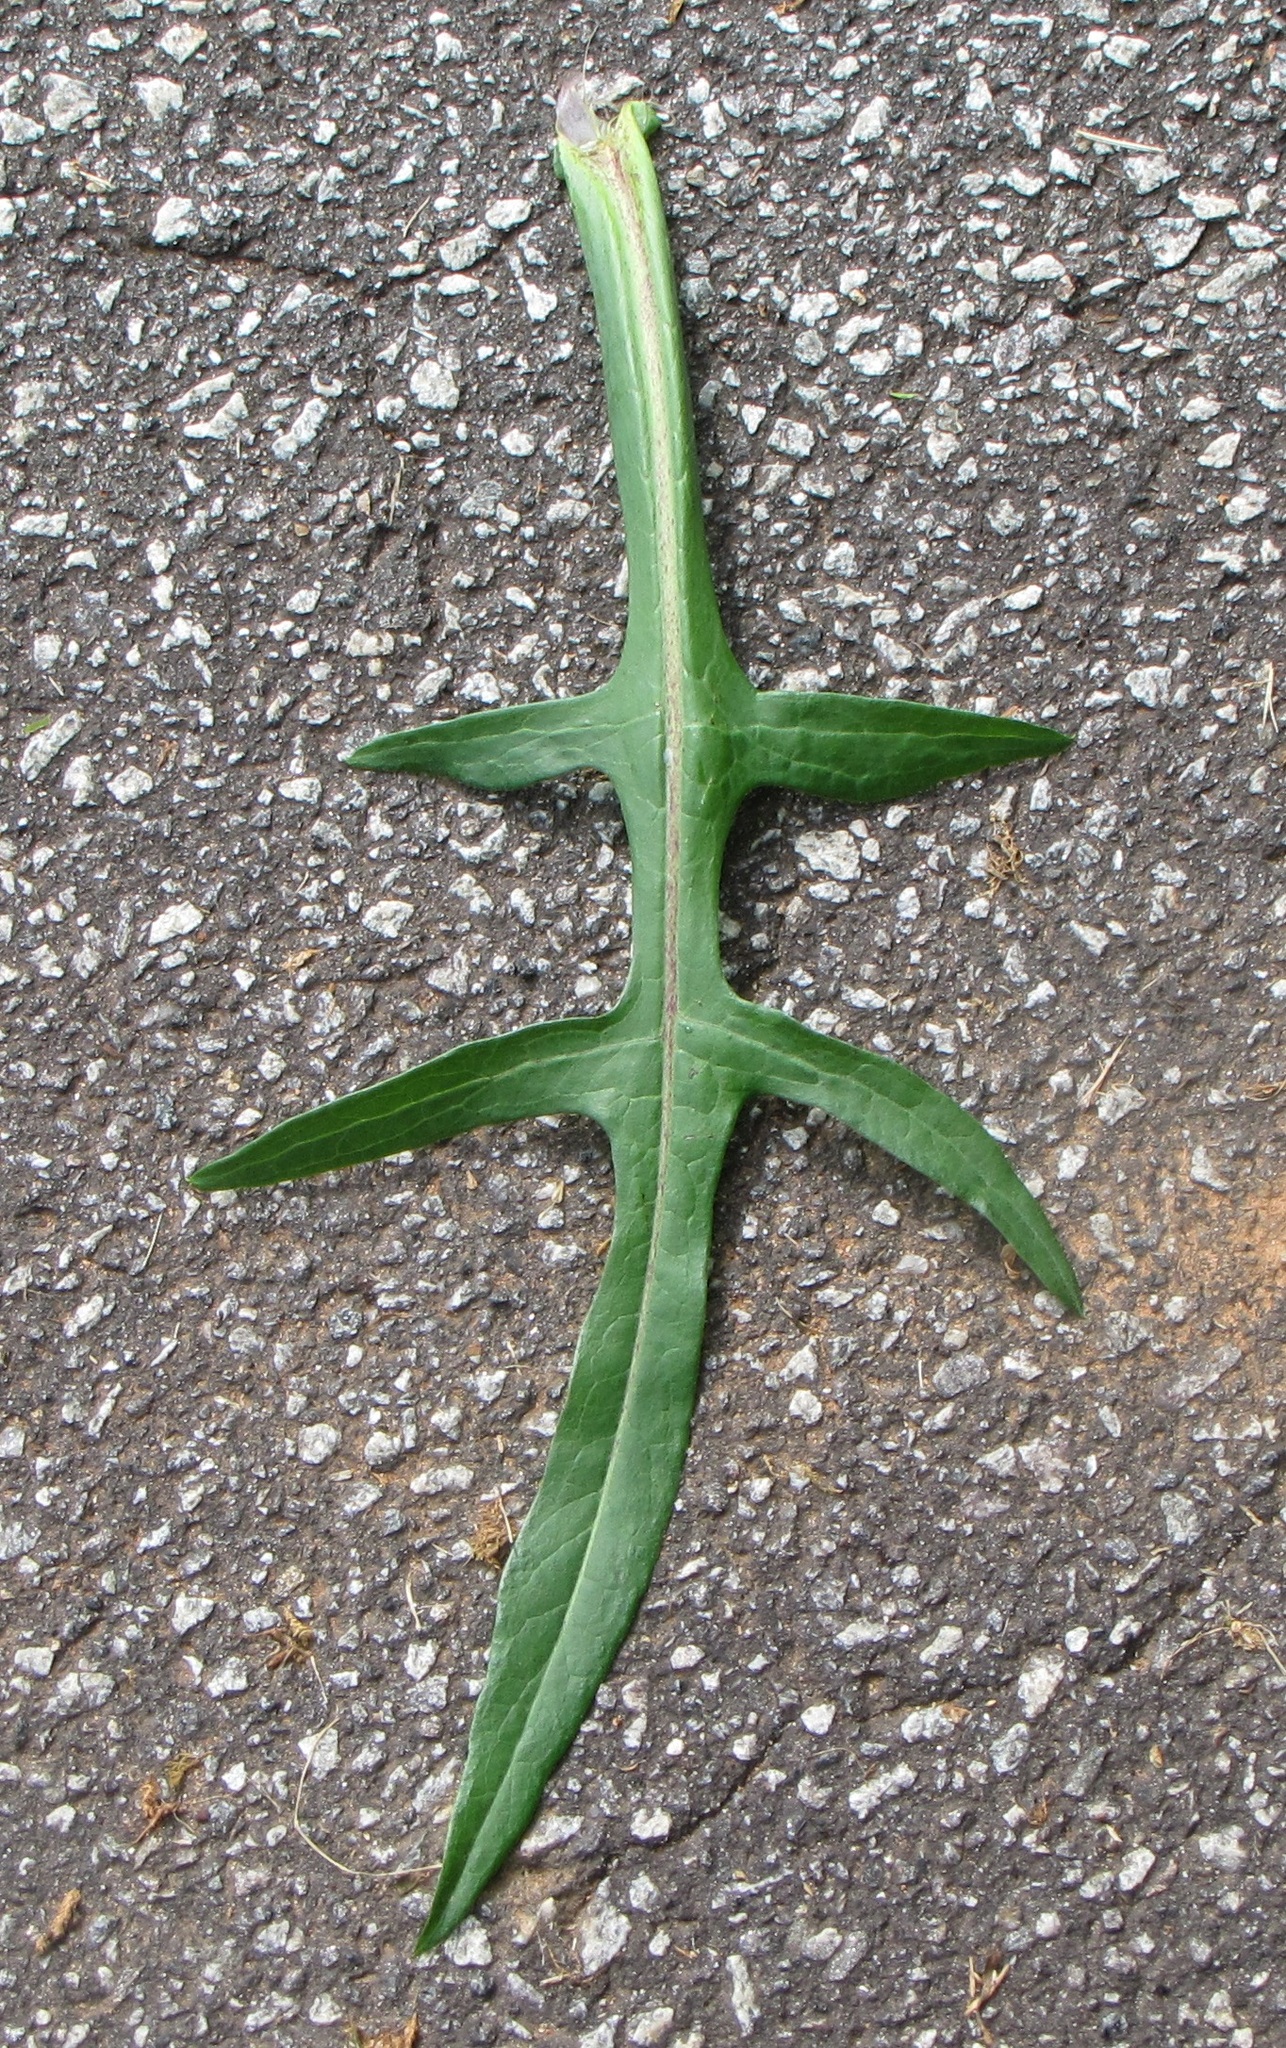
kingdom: Plantae
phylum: Tracheophyta
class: Magnoliopsida
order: Asterales
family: Asteraceae
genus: Lactuca
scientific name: Lactuca canadensis
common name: Canada lettuce
